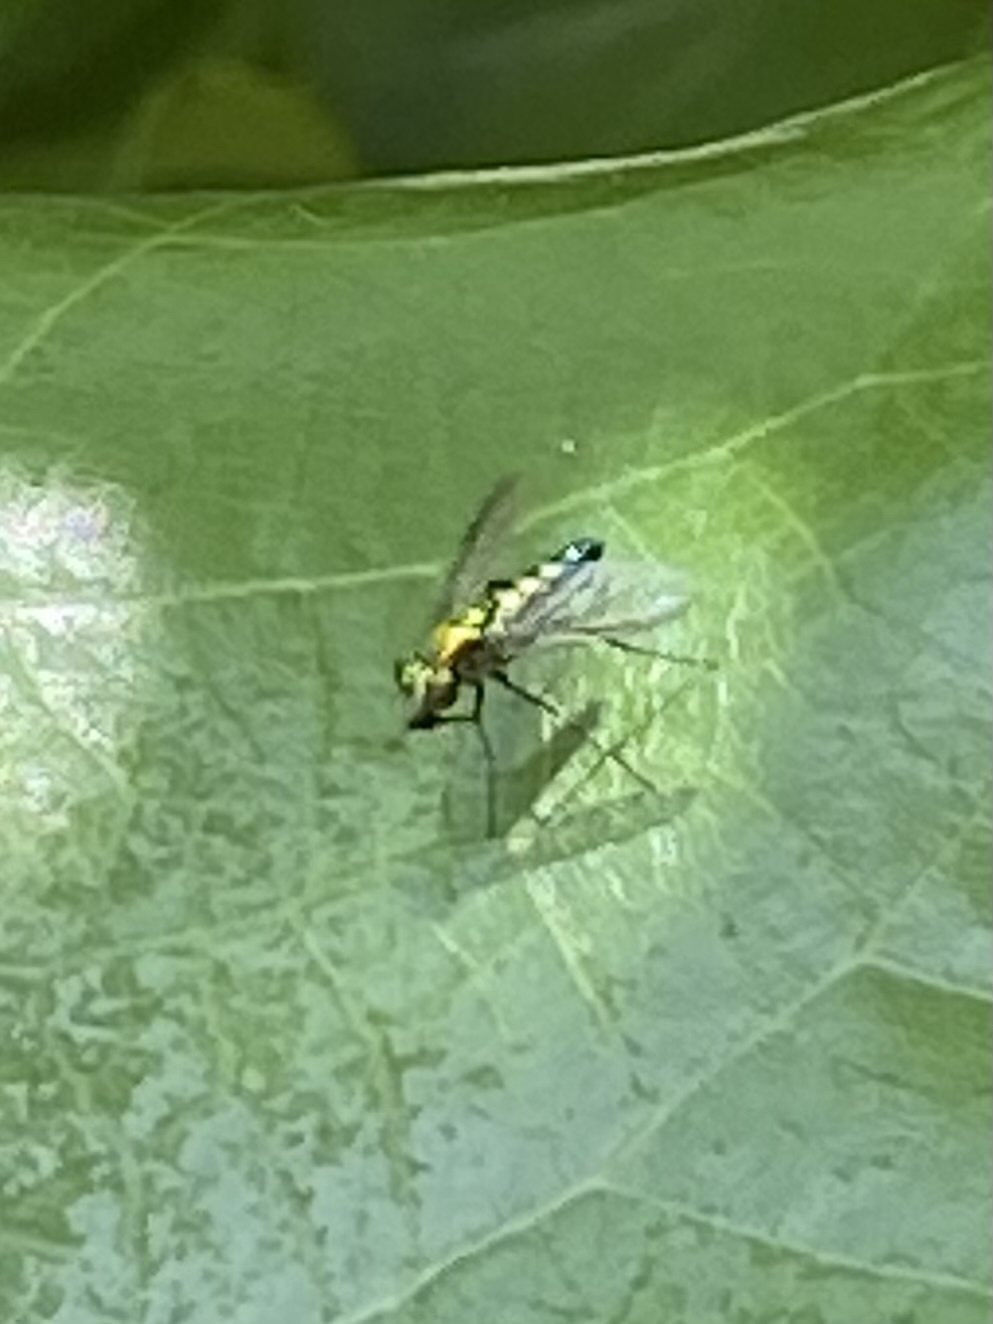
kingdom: Animalia
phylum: Arthropoda
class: Insecta
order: Diptera
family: Dolichopodidae
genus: Condylostylus
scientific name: Condylostylus longicornis
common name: Long-legged fly
